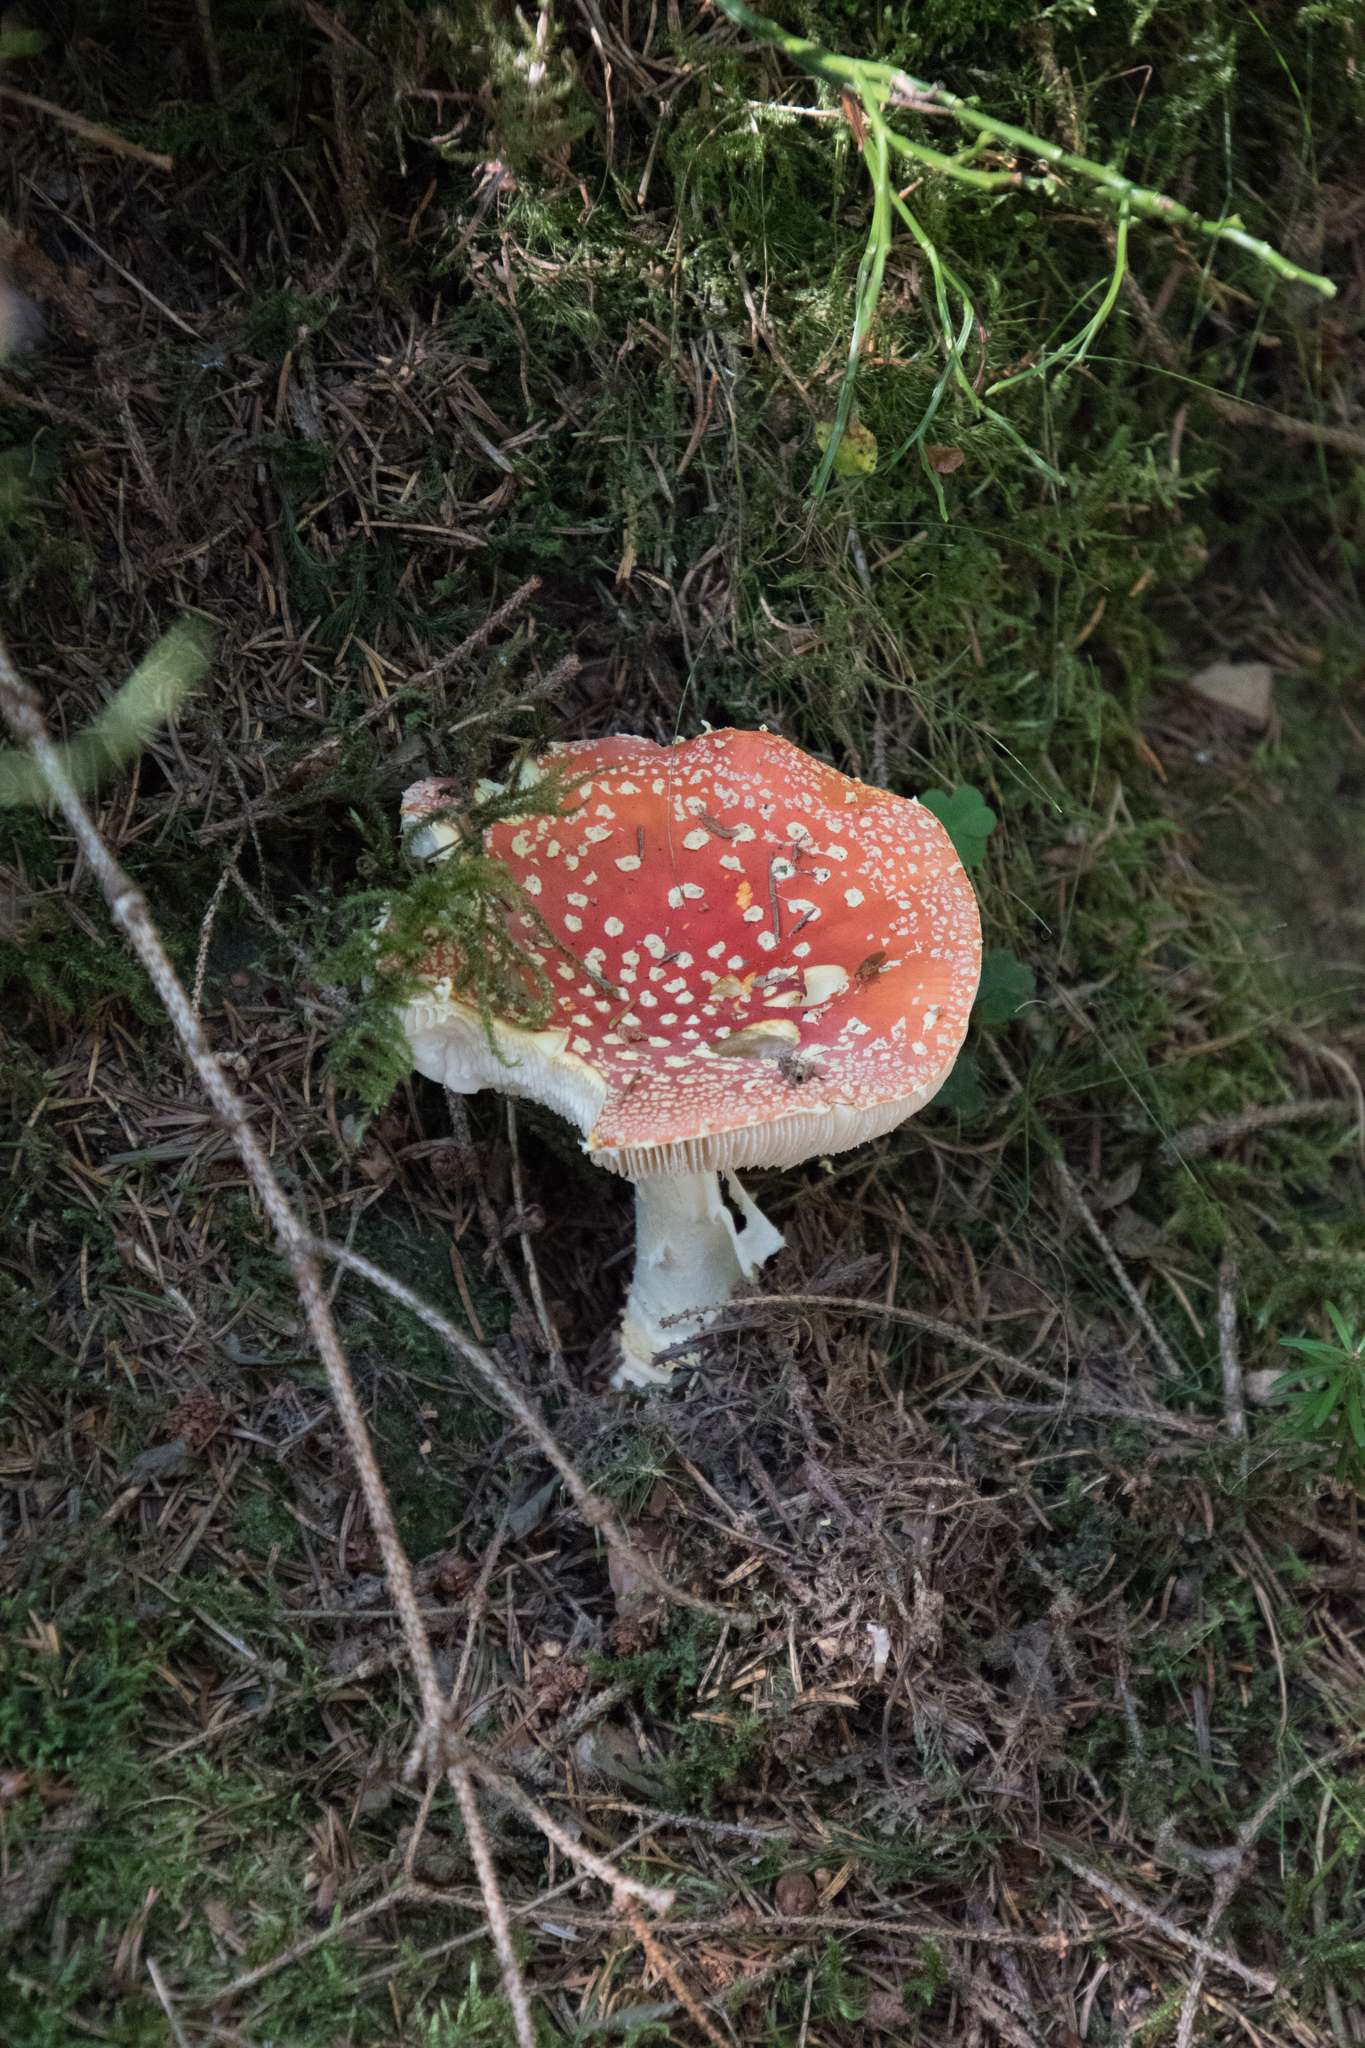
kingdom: Fungi
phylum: Basidiomycota
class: Agaricomycetes
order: Agaricales
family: Amanitaceae
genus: Amanita
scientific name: Amanita muscaria
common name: Fly agaric
